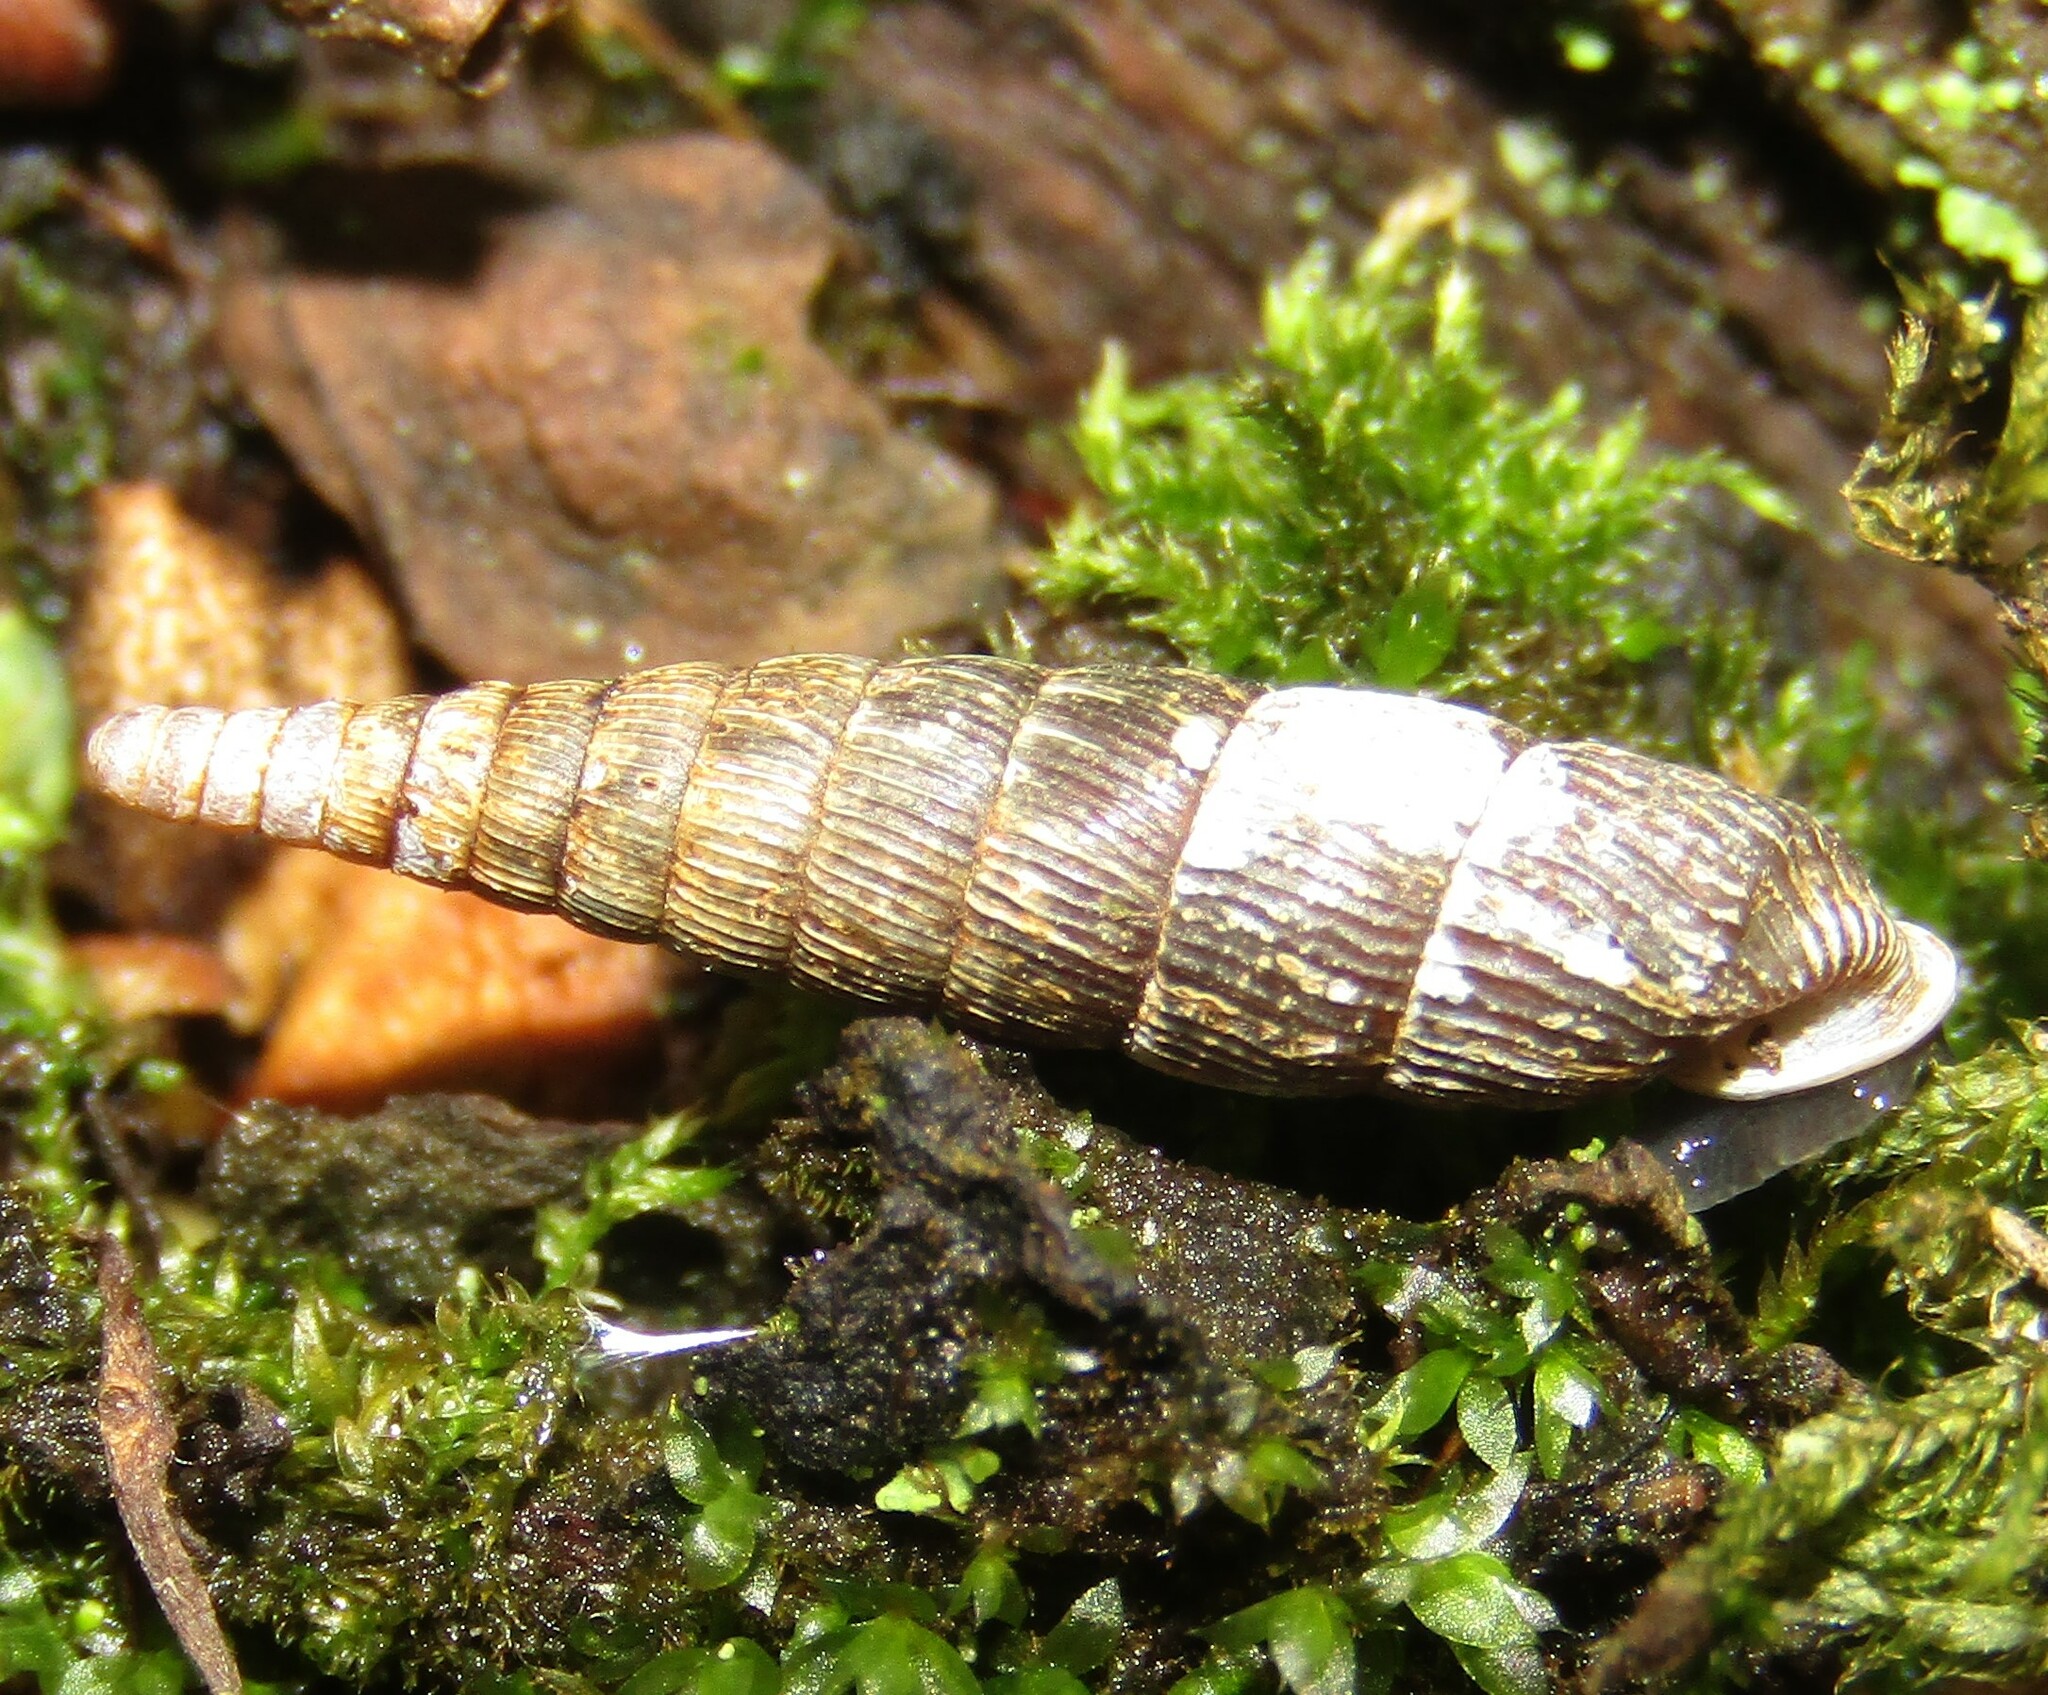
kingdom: Animalia
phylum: Mollusca
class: Gastropoda
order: Stylommatophora
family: Clausiliidae
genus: Clausilia
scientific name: Clausilia pumila
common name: Clublike door snail
